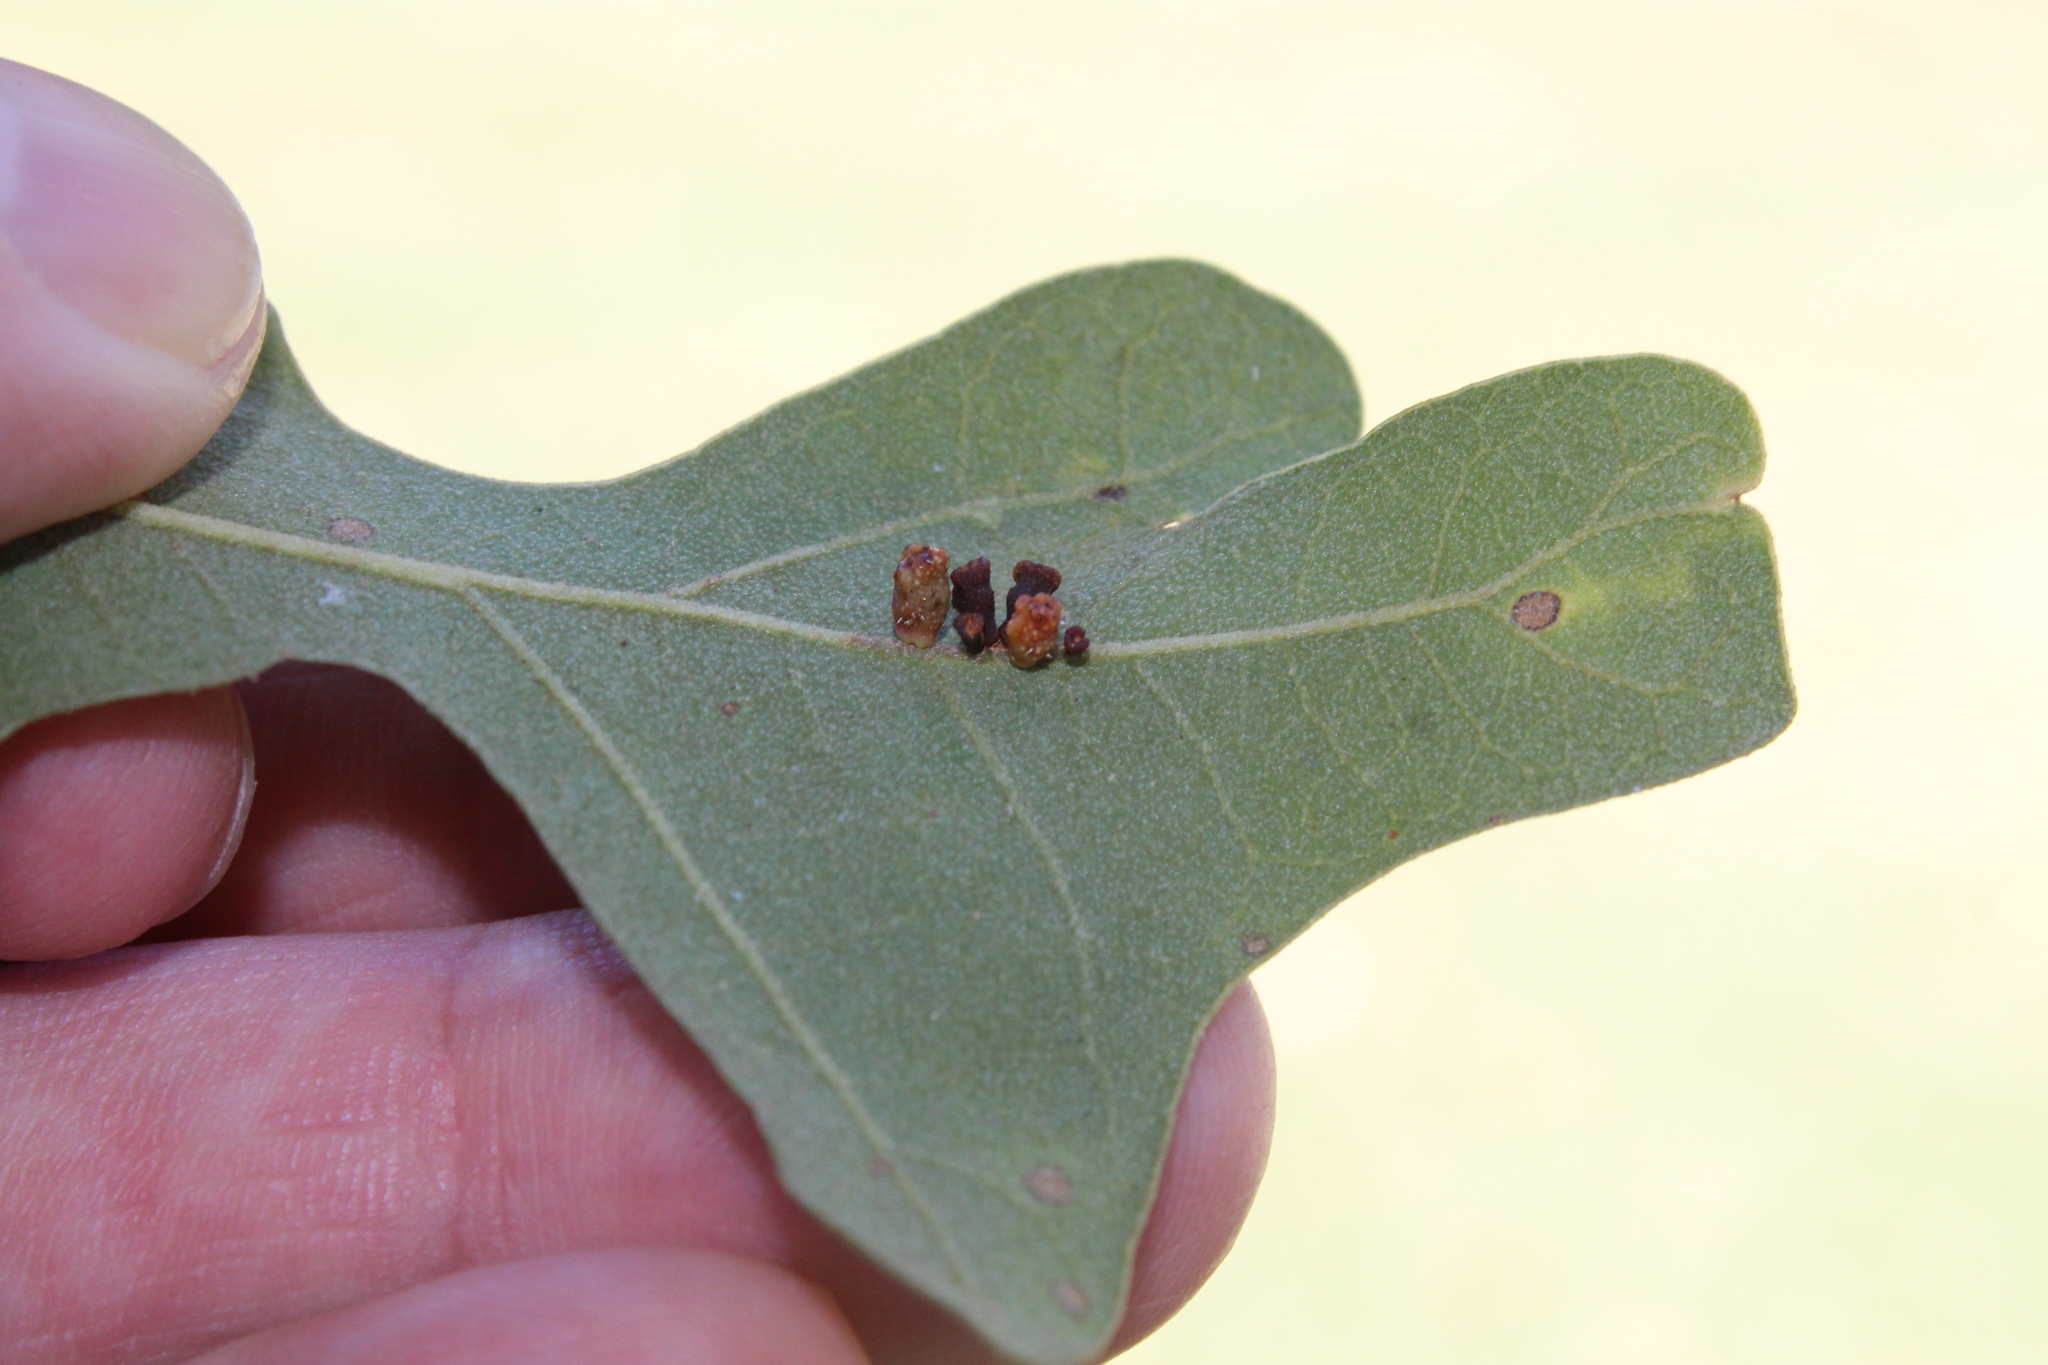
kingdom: Animalia
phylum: Arthropoda
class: Insecta
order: Hymenoptera
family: Cynipidae
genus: Andricus
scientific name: Andricus lustrans
